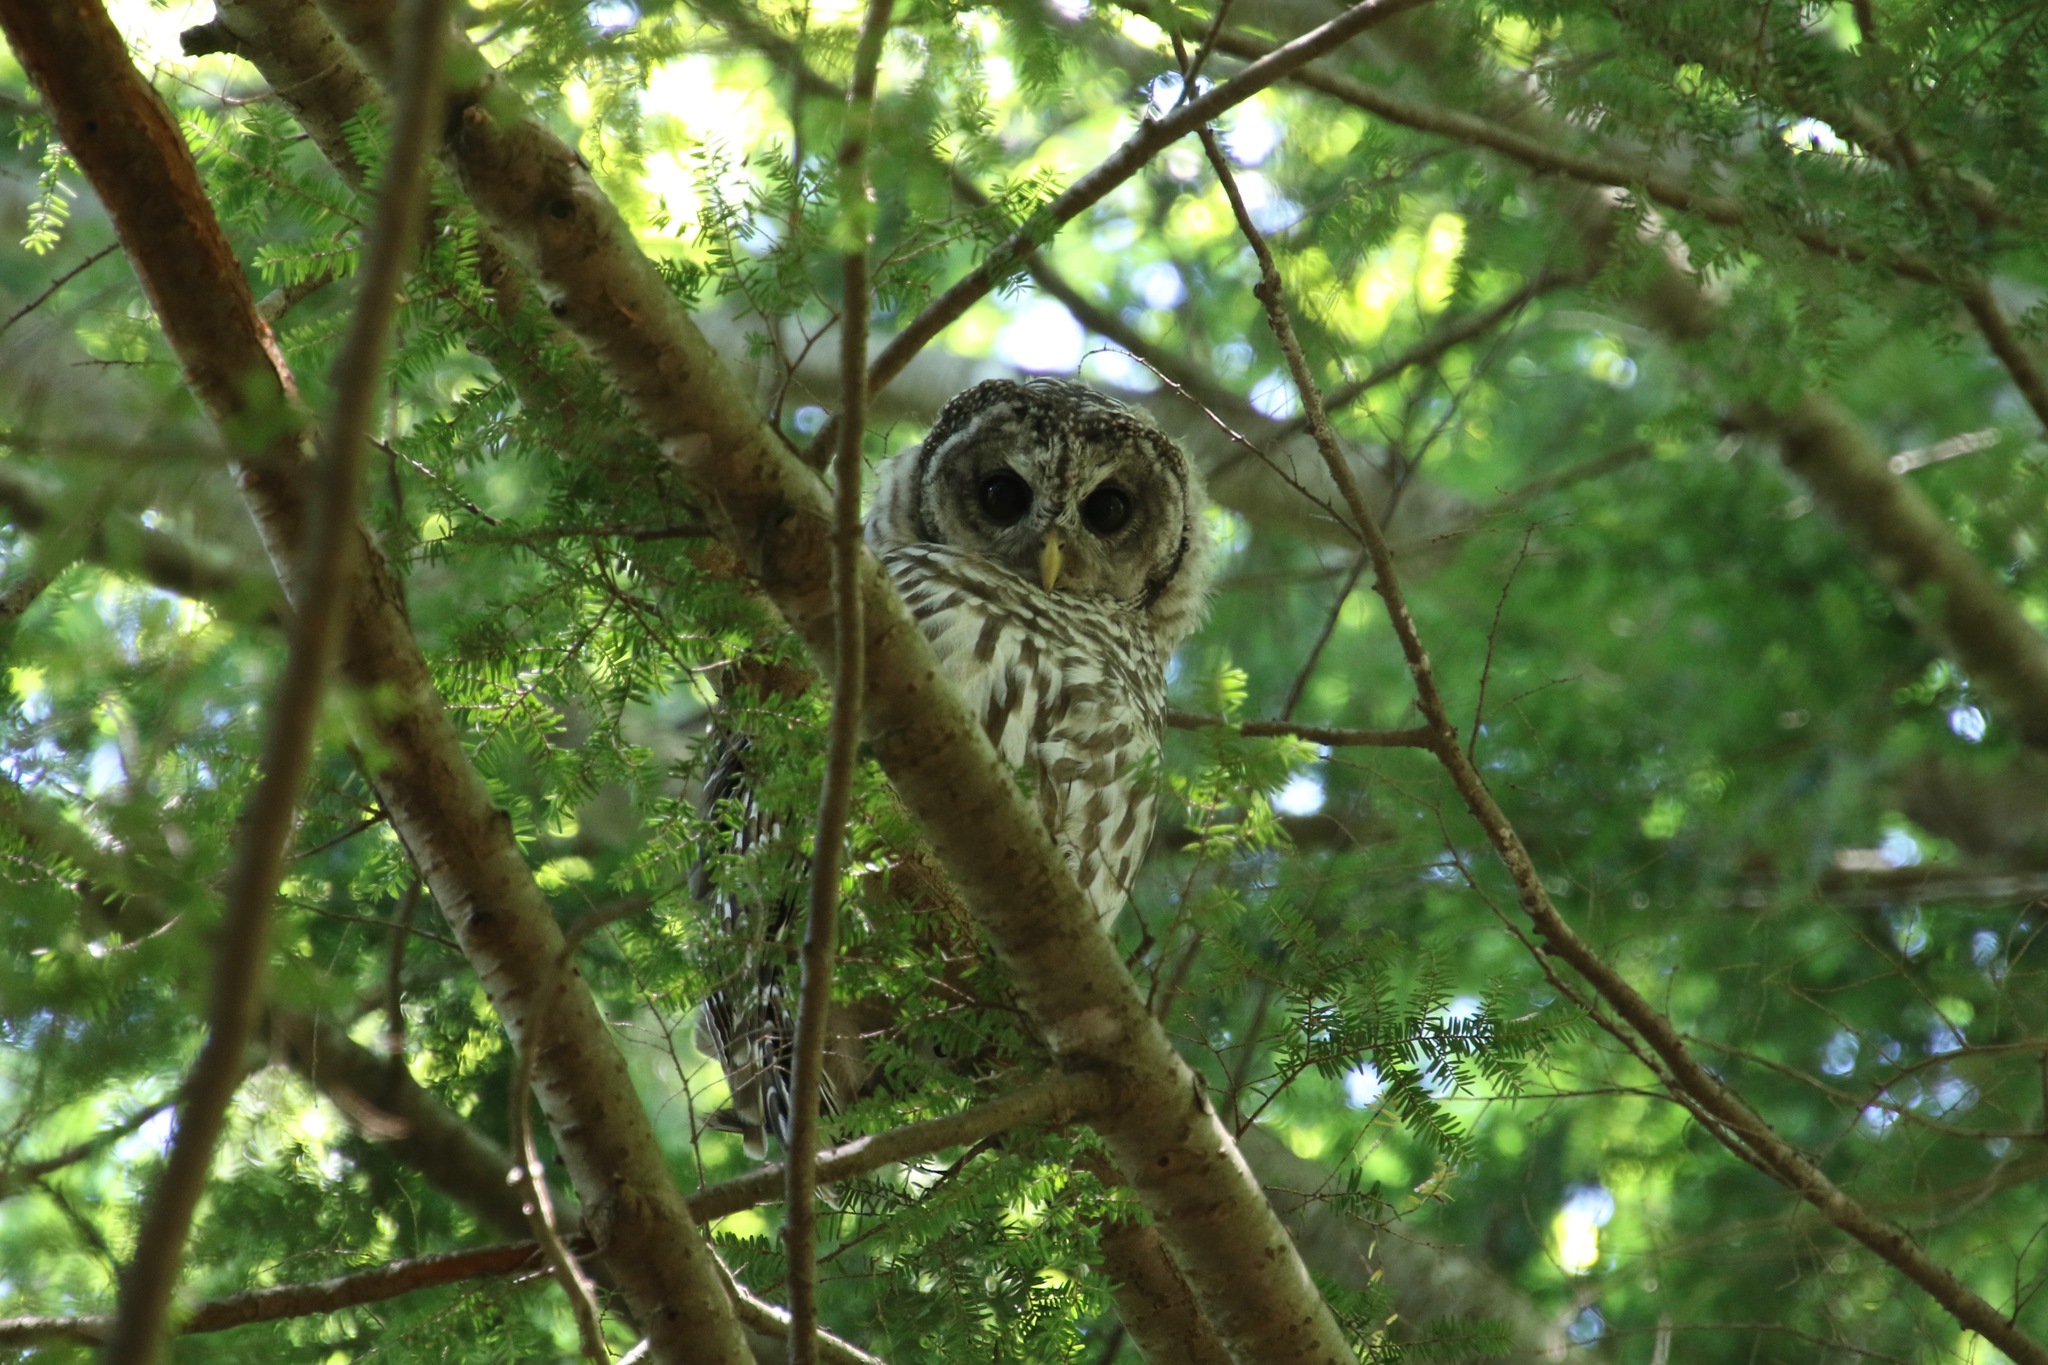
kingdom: Animalia
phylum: Chordata
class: Aves
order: Strigiformes
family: Strigidae
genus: Strix
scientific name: Strix varia
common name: Barred owl
